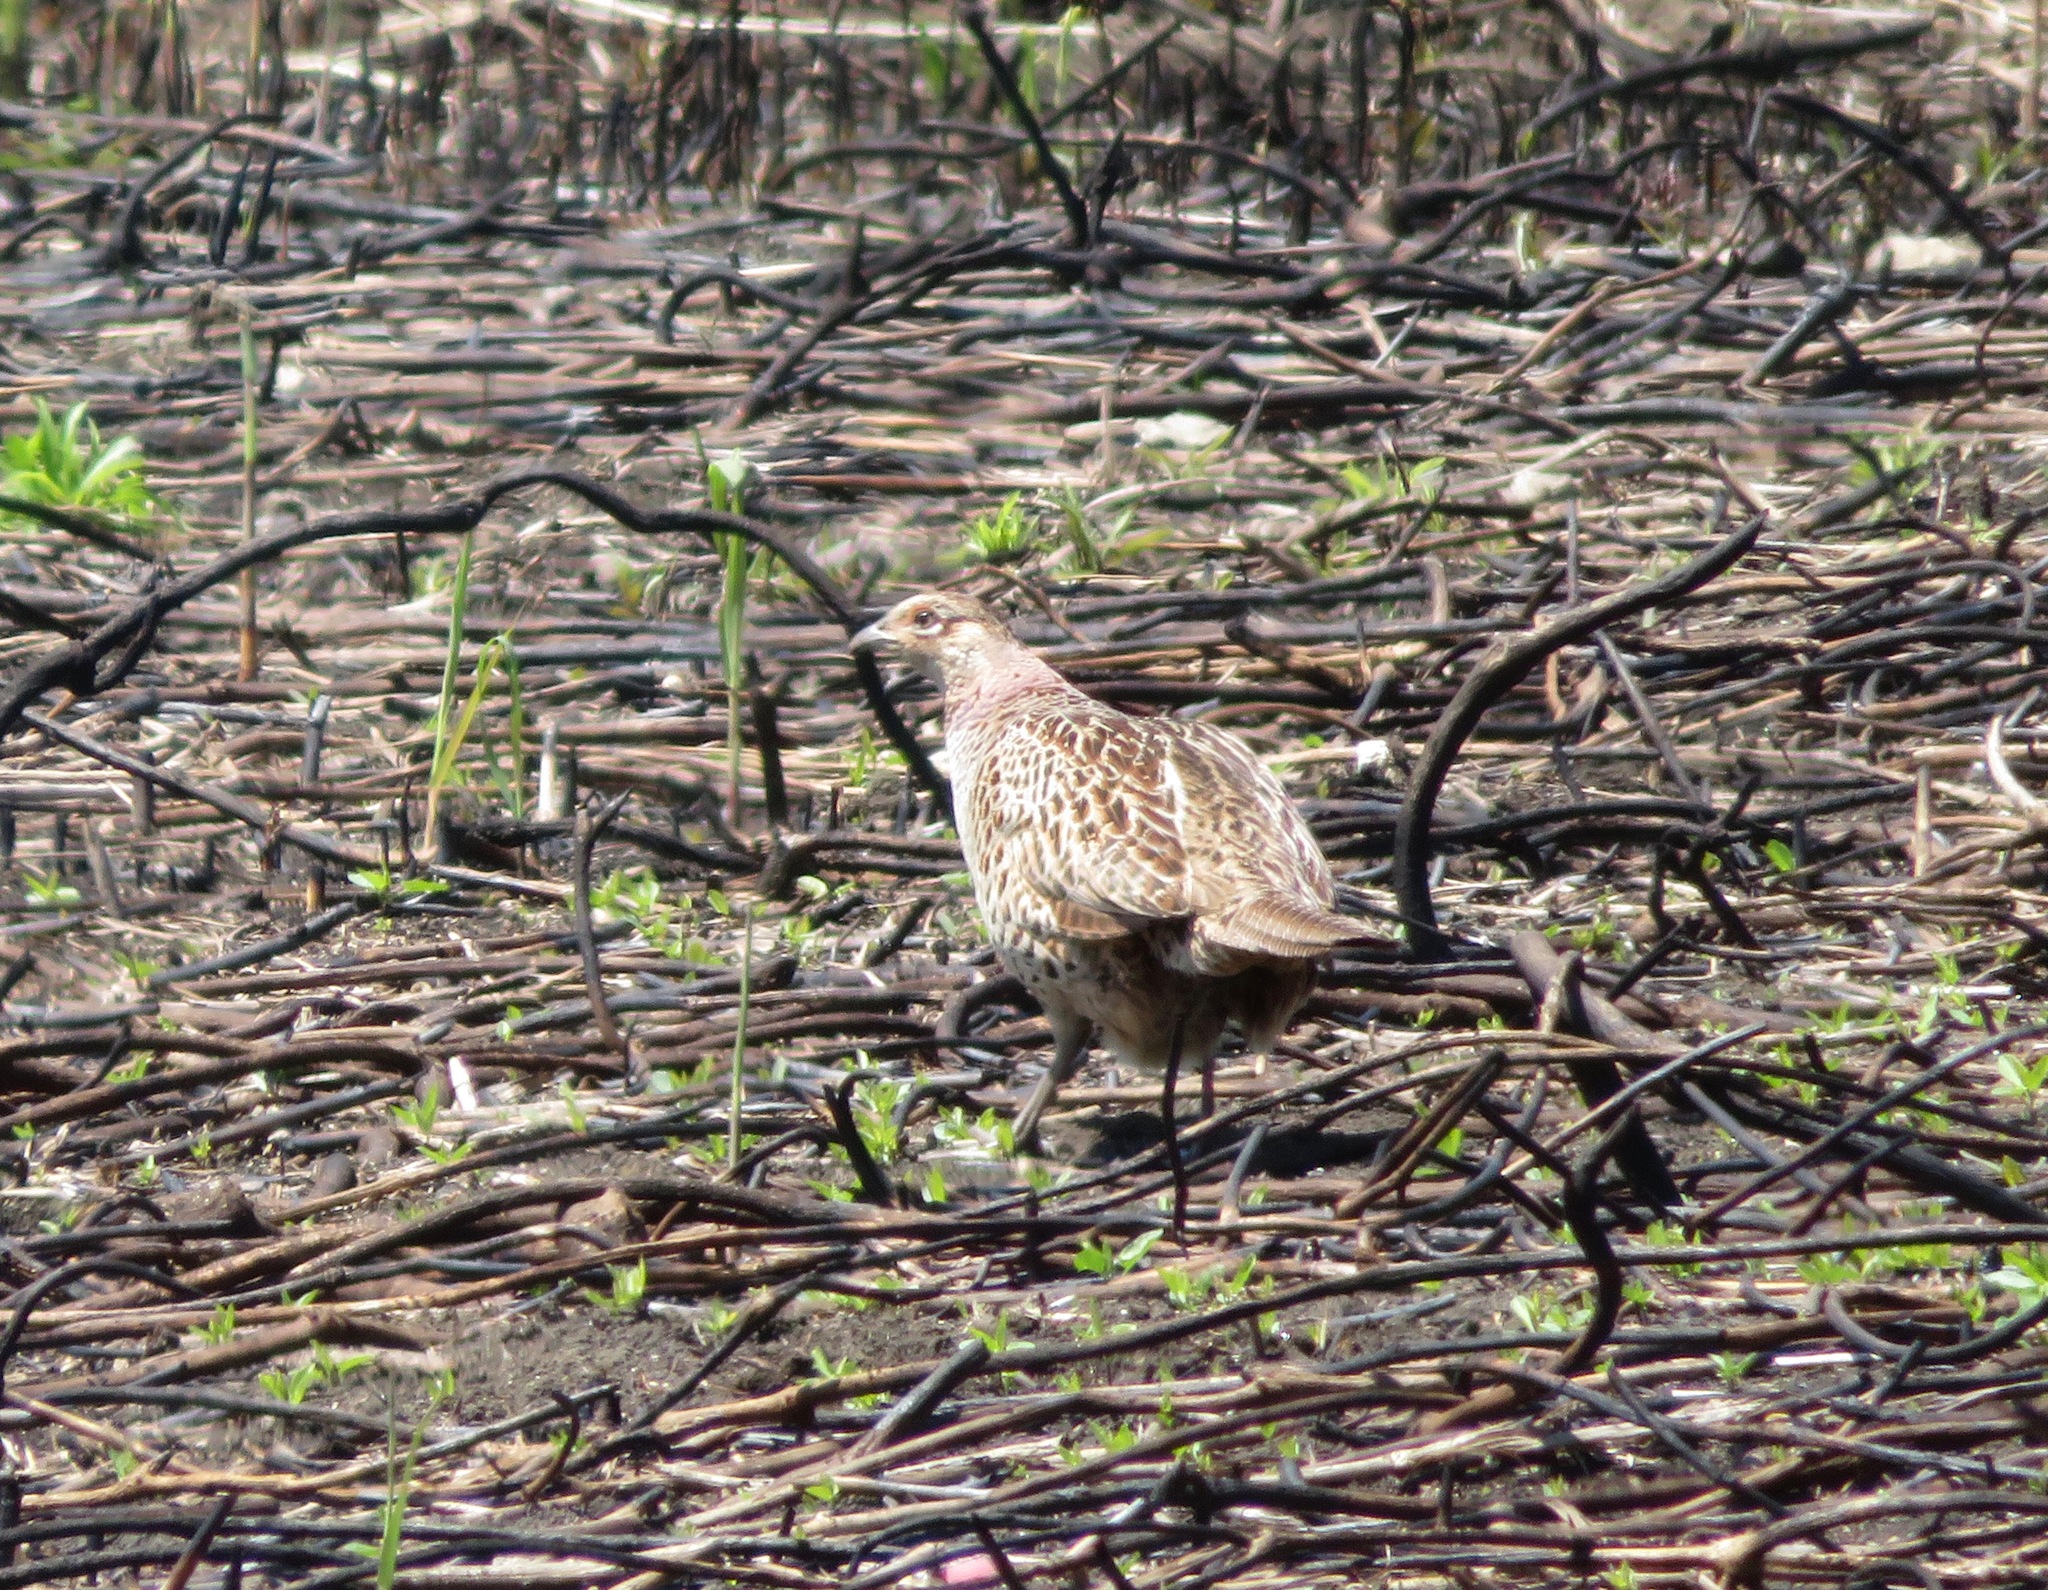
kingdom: Animalia
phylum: Chordata
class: Aves
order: Galliformes
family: Phasianidae
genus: Phasianus
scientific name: Phasianus versicolor
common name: Green pheasant
